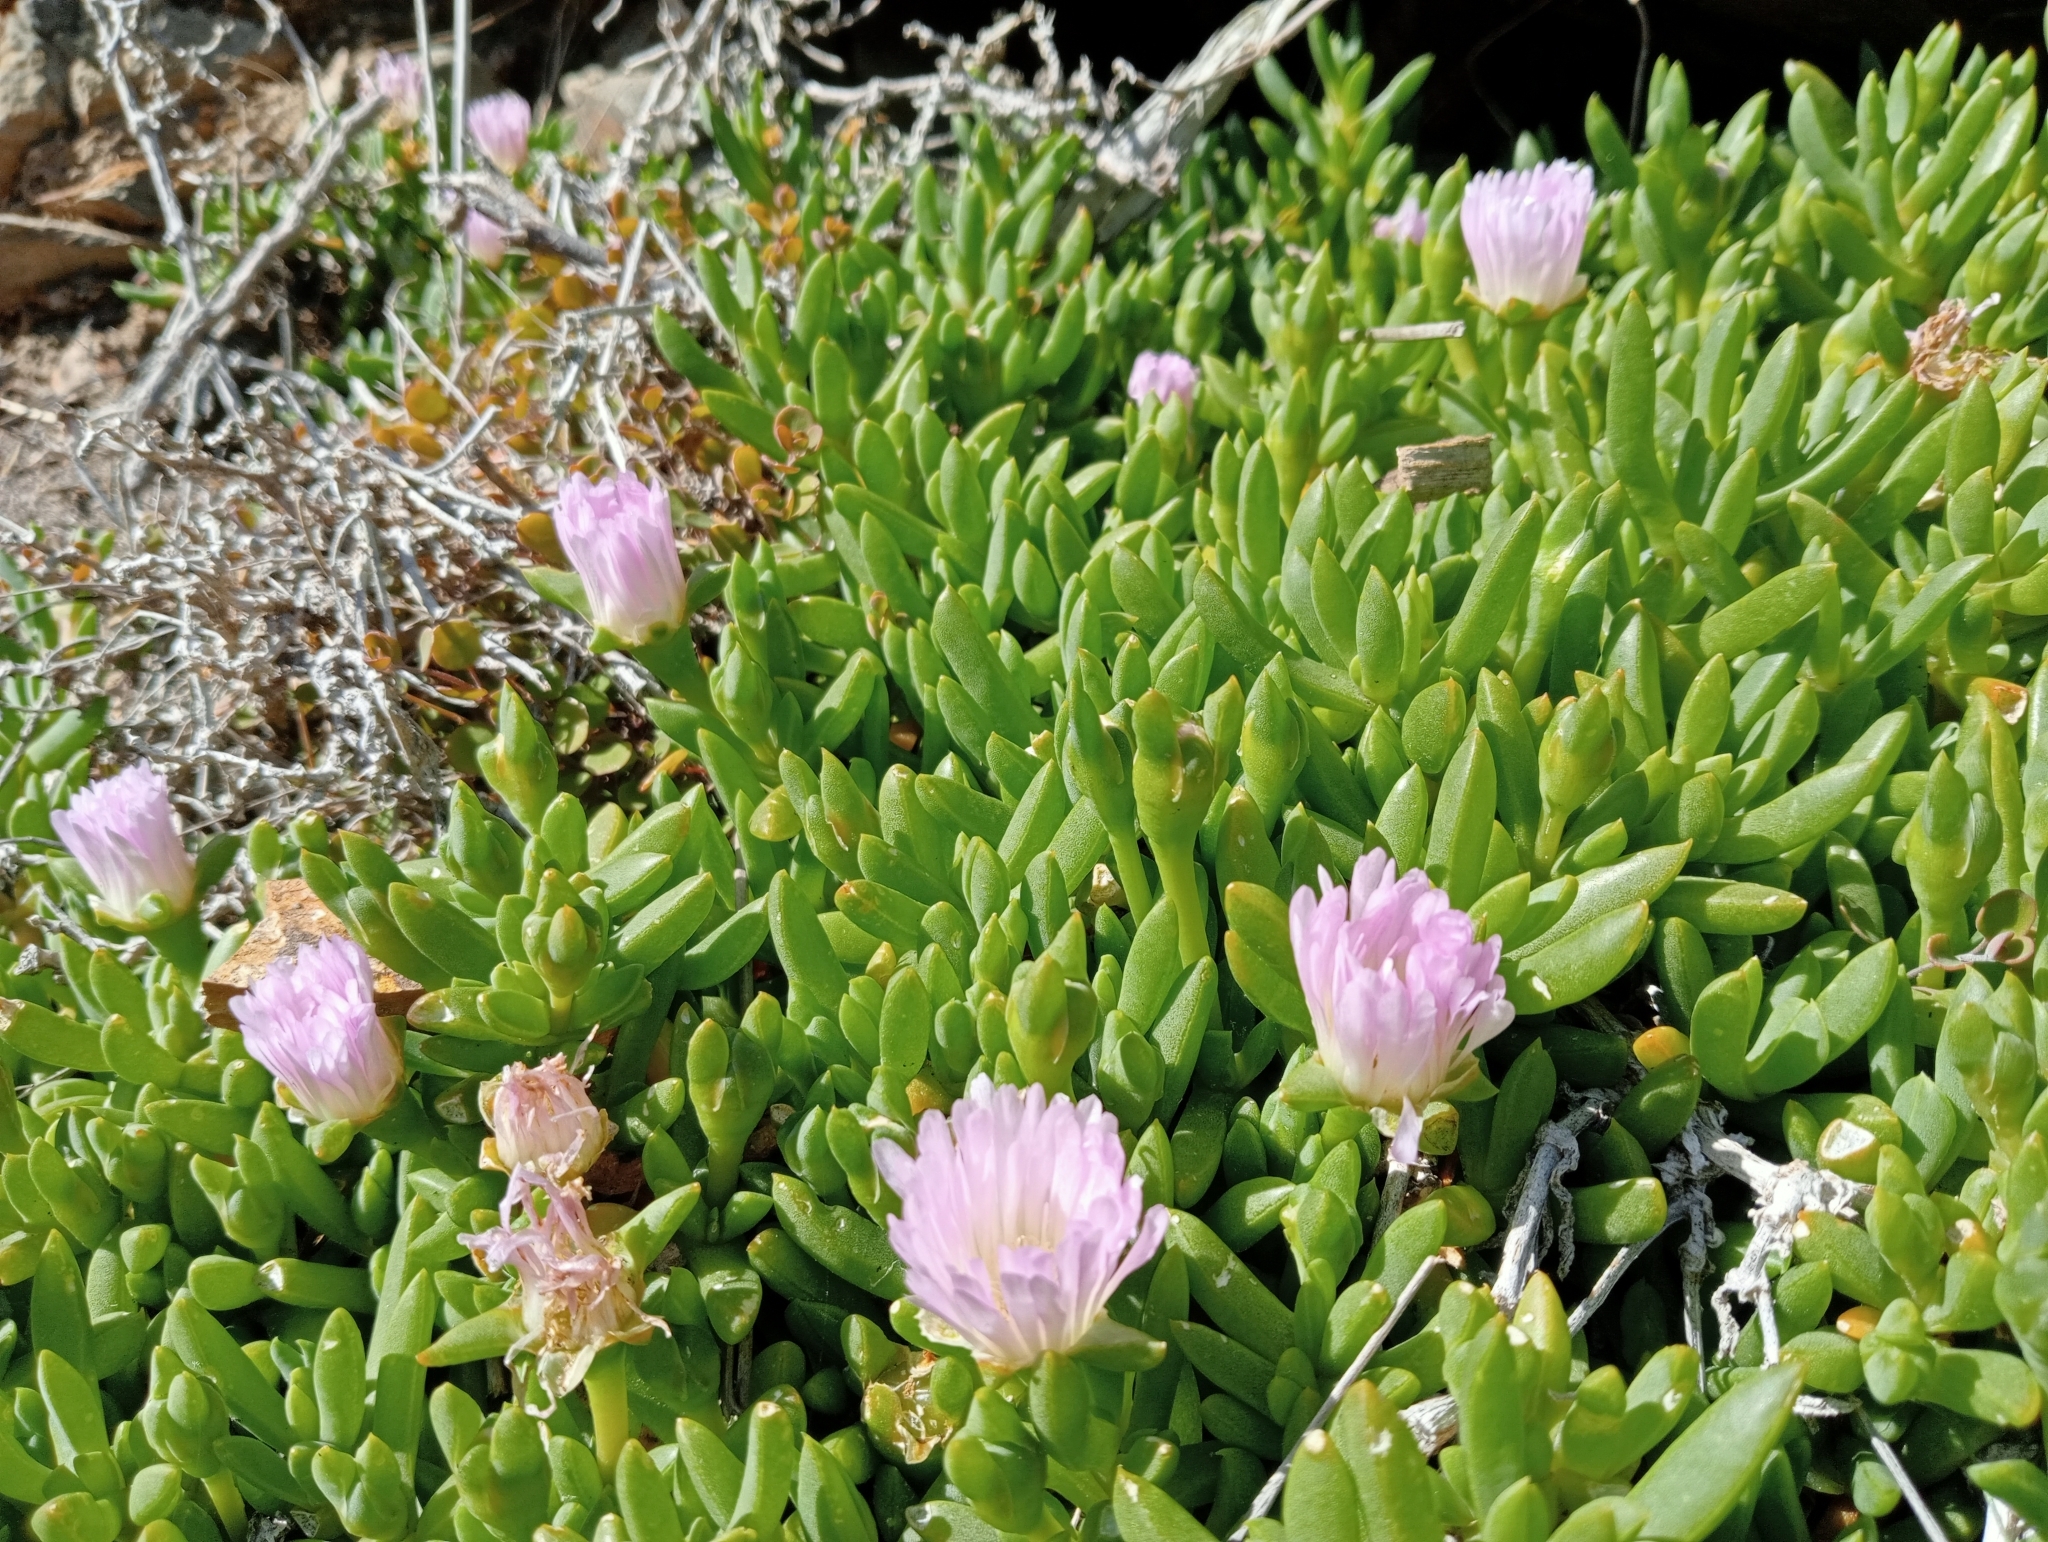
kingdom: Plantae
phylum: Tracheophyta
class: Magnoliopsida
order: Caryophyllales
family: Aizoaceae
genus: Disphyma
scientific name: Disphyma australe
